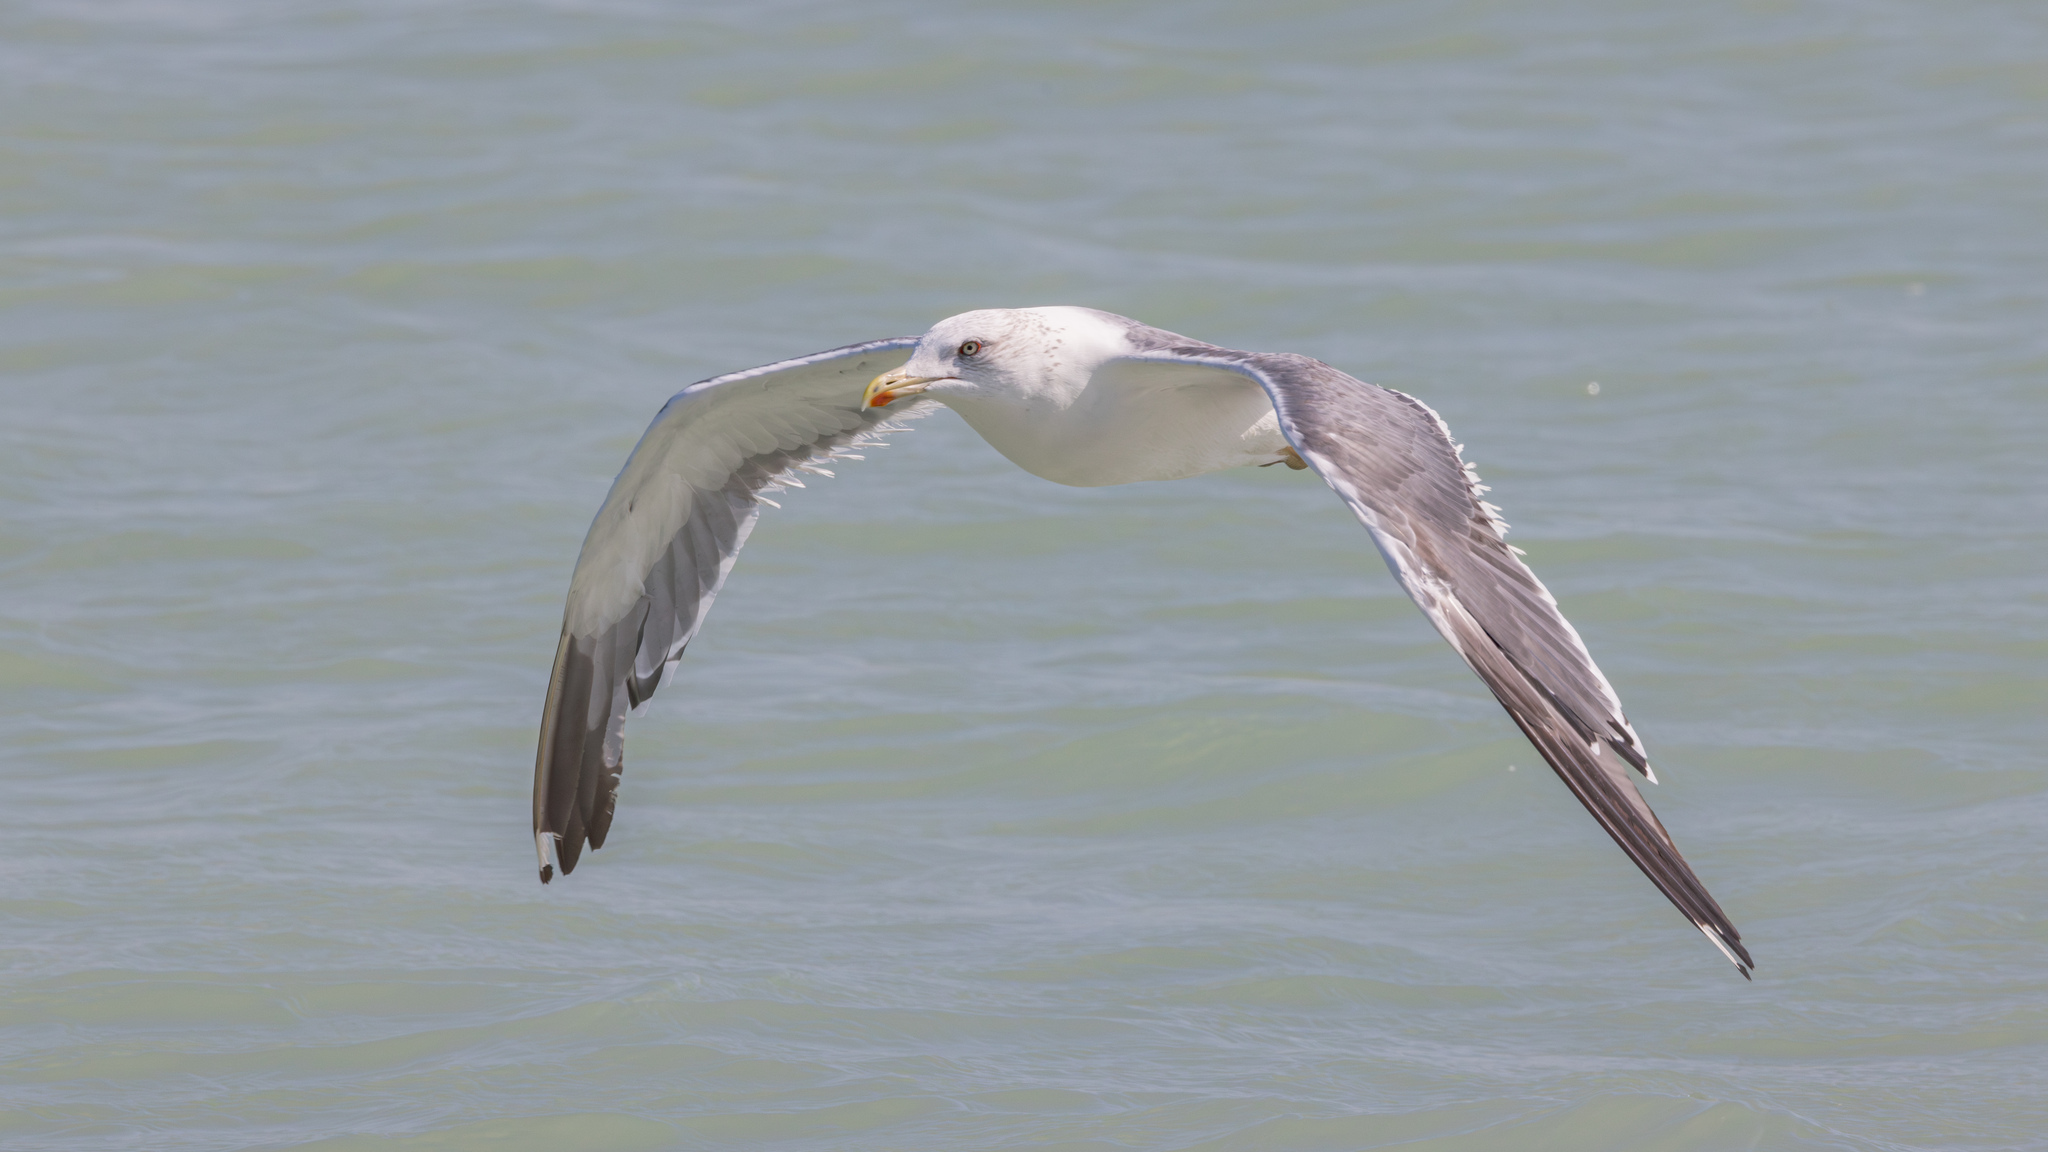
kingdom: Animalia
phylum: Chordata
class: Aves
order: Charadriiformes
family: Laridae
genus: Larus
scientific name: Larus fuscus
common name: Lesser black-backed gull
